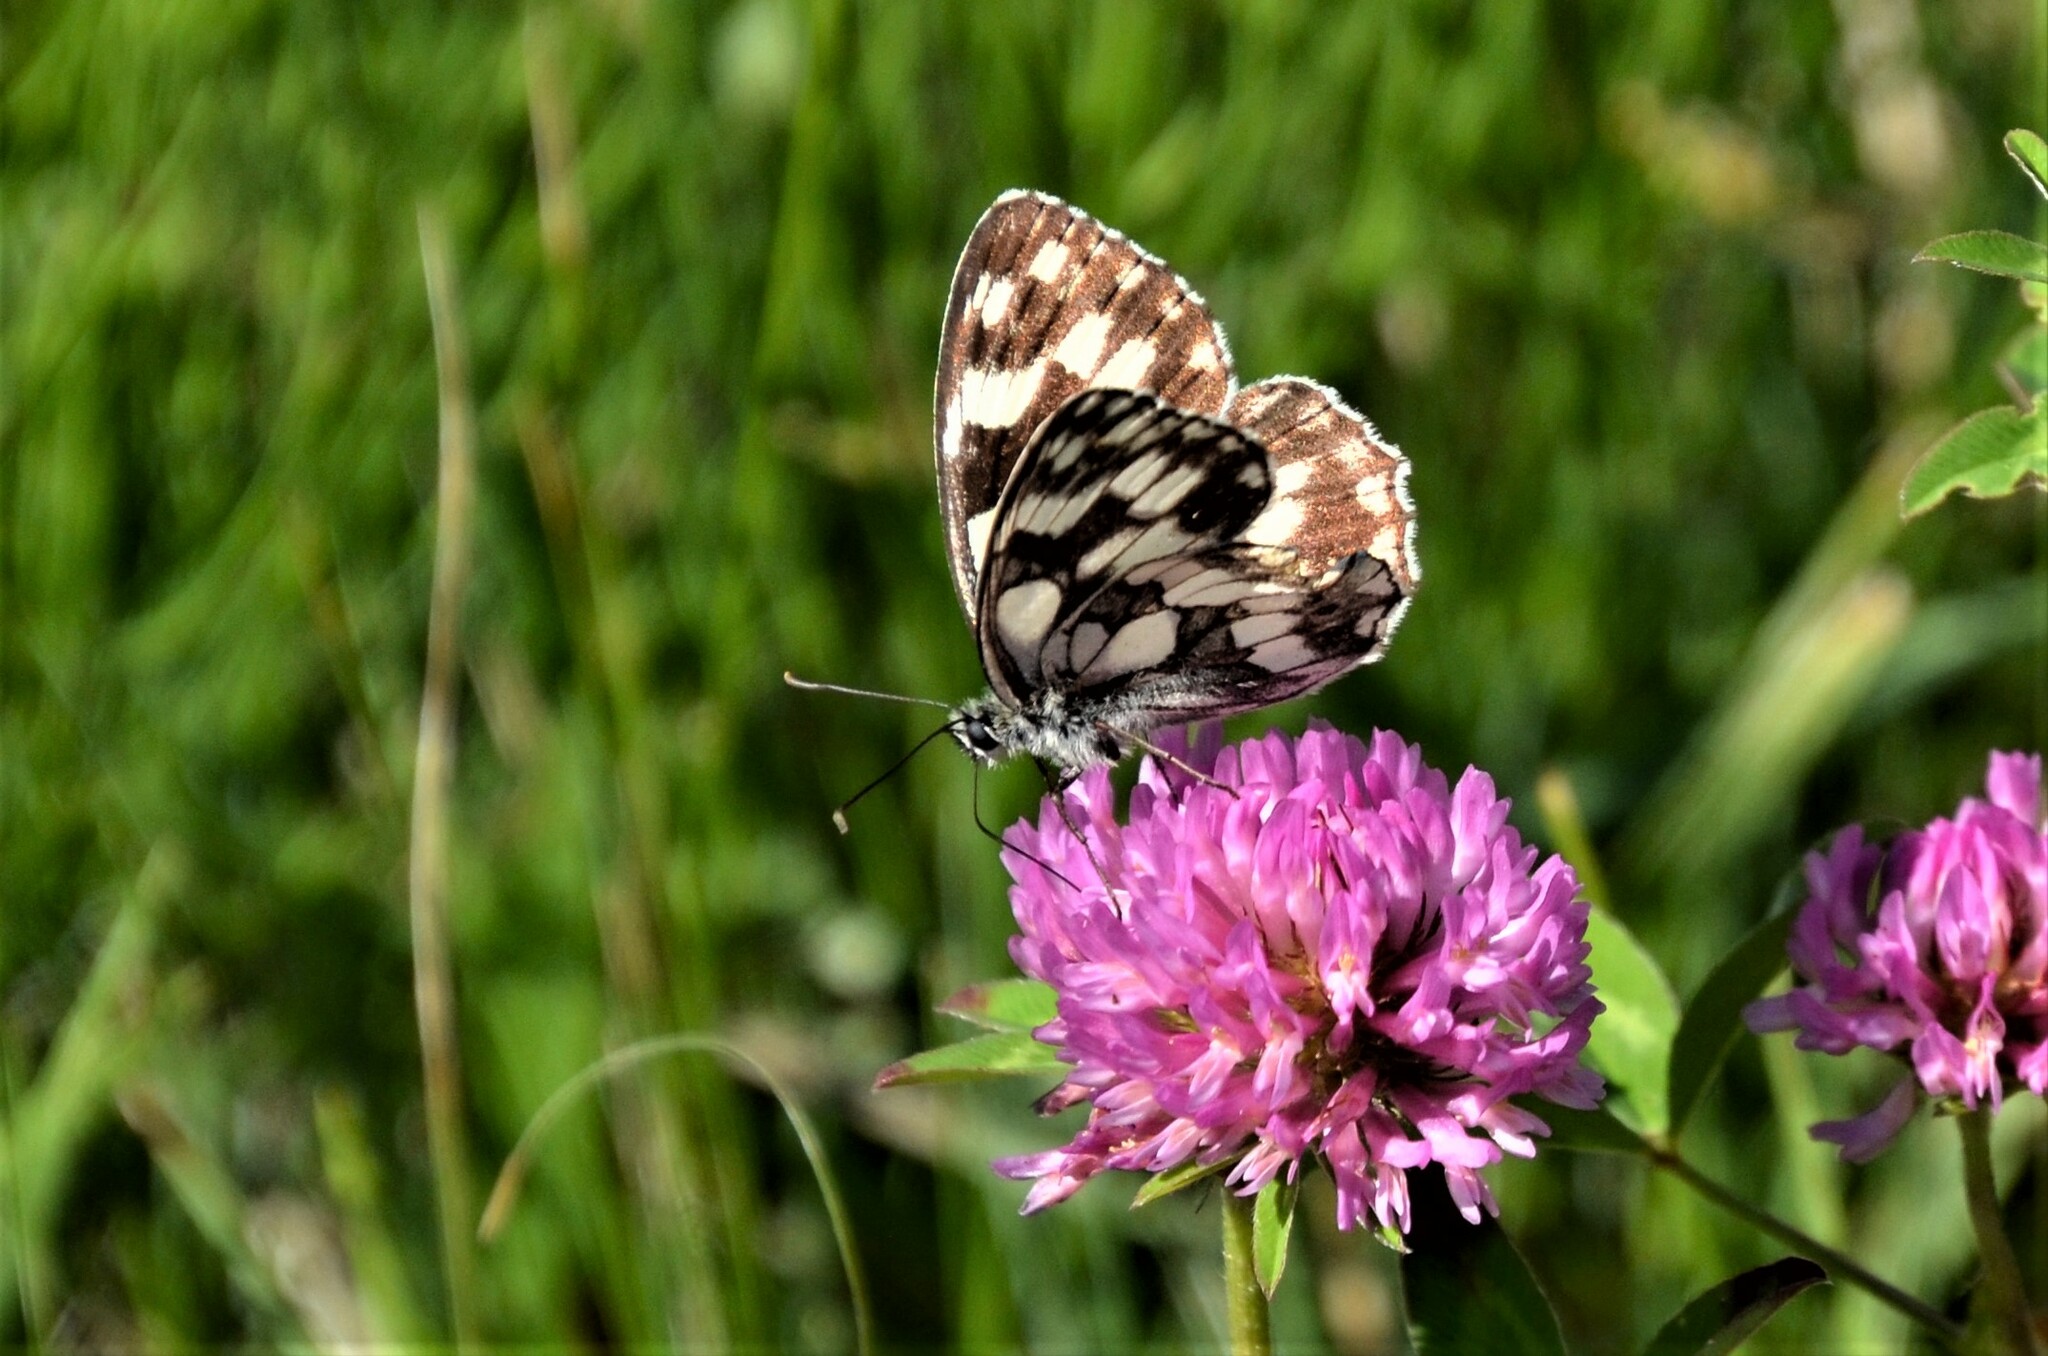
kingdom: Animalia
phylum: Arthropoda
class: Insecta
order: Lepidoptera
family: Nymphalidae
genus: Melanargia
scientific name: Melanargia galathea
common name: Marbled white
